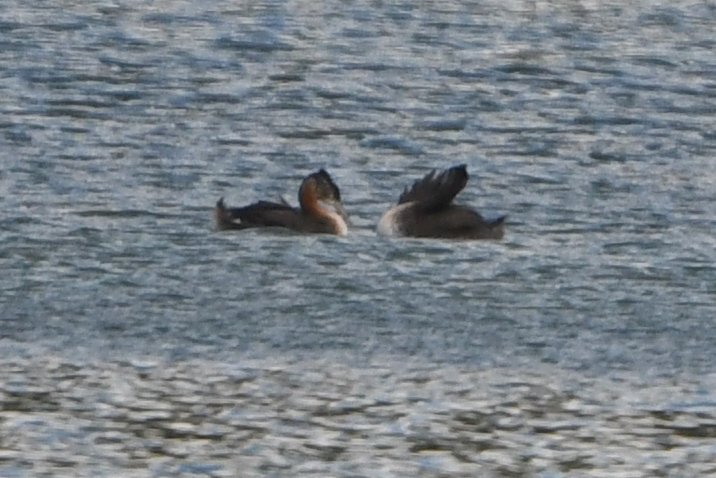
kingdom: Animalia
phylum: Chordata
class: Aves
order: Podicipediformes
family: Podicipedidae
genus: Podiceps
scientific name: Podiceps major
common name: Great grebe
